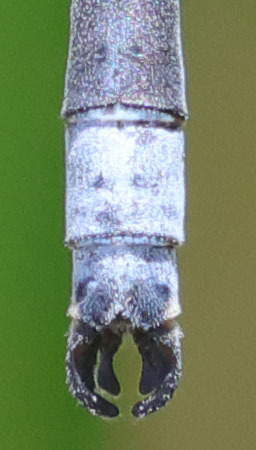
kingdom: Animalia
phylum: Arthropoda
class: Insecta
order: Odonata
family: Lestidae
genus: Lestes
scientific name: Lestes stultus
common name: Black spreadwing
